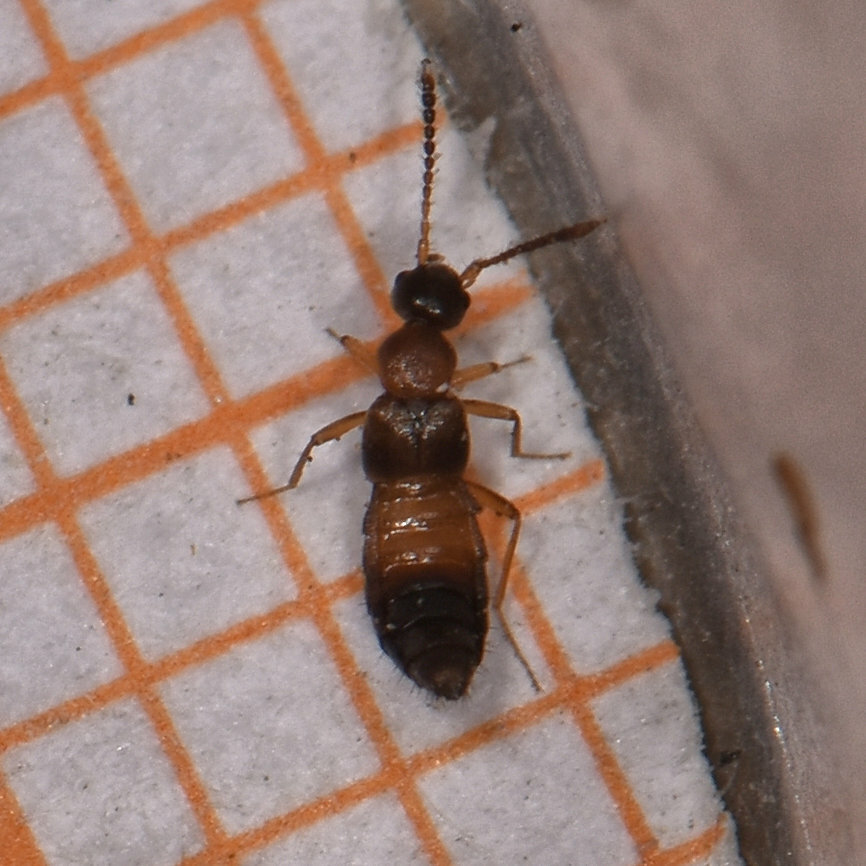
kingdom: Animalia
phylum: Arthropoda
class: Insecta
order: Coleoptera
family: Staphylinidae
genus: Meronera
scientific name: Meronera venustula
